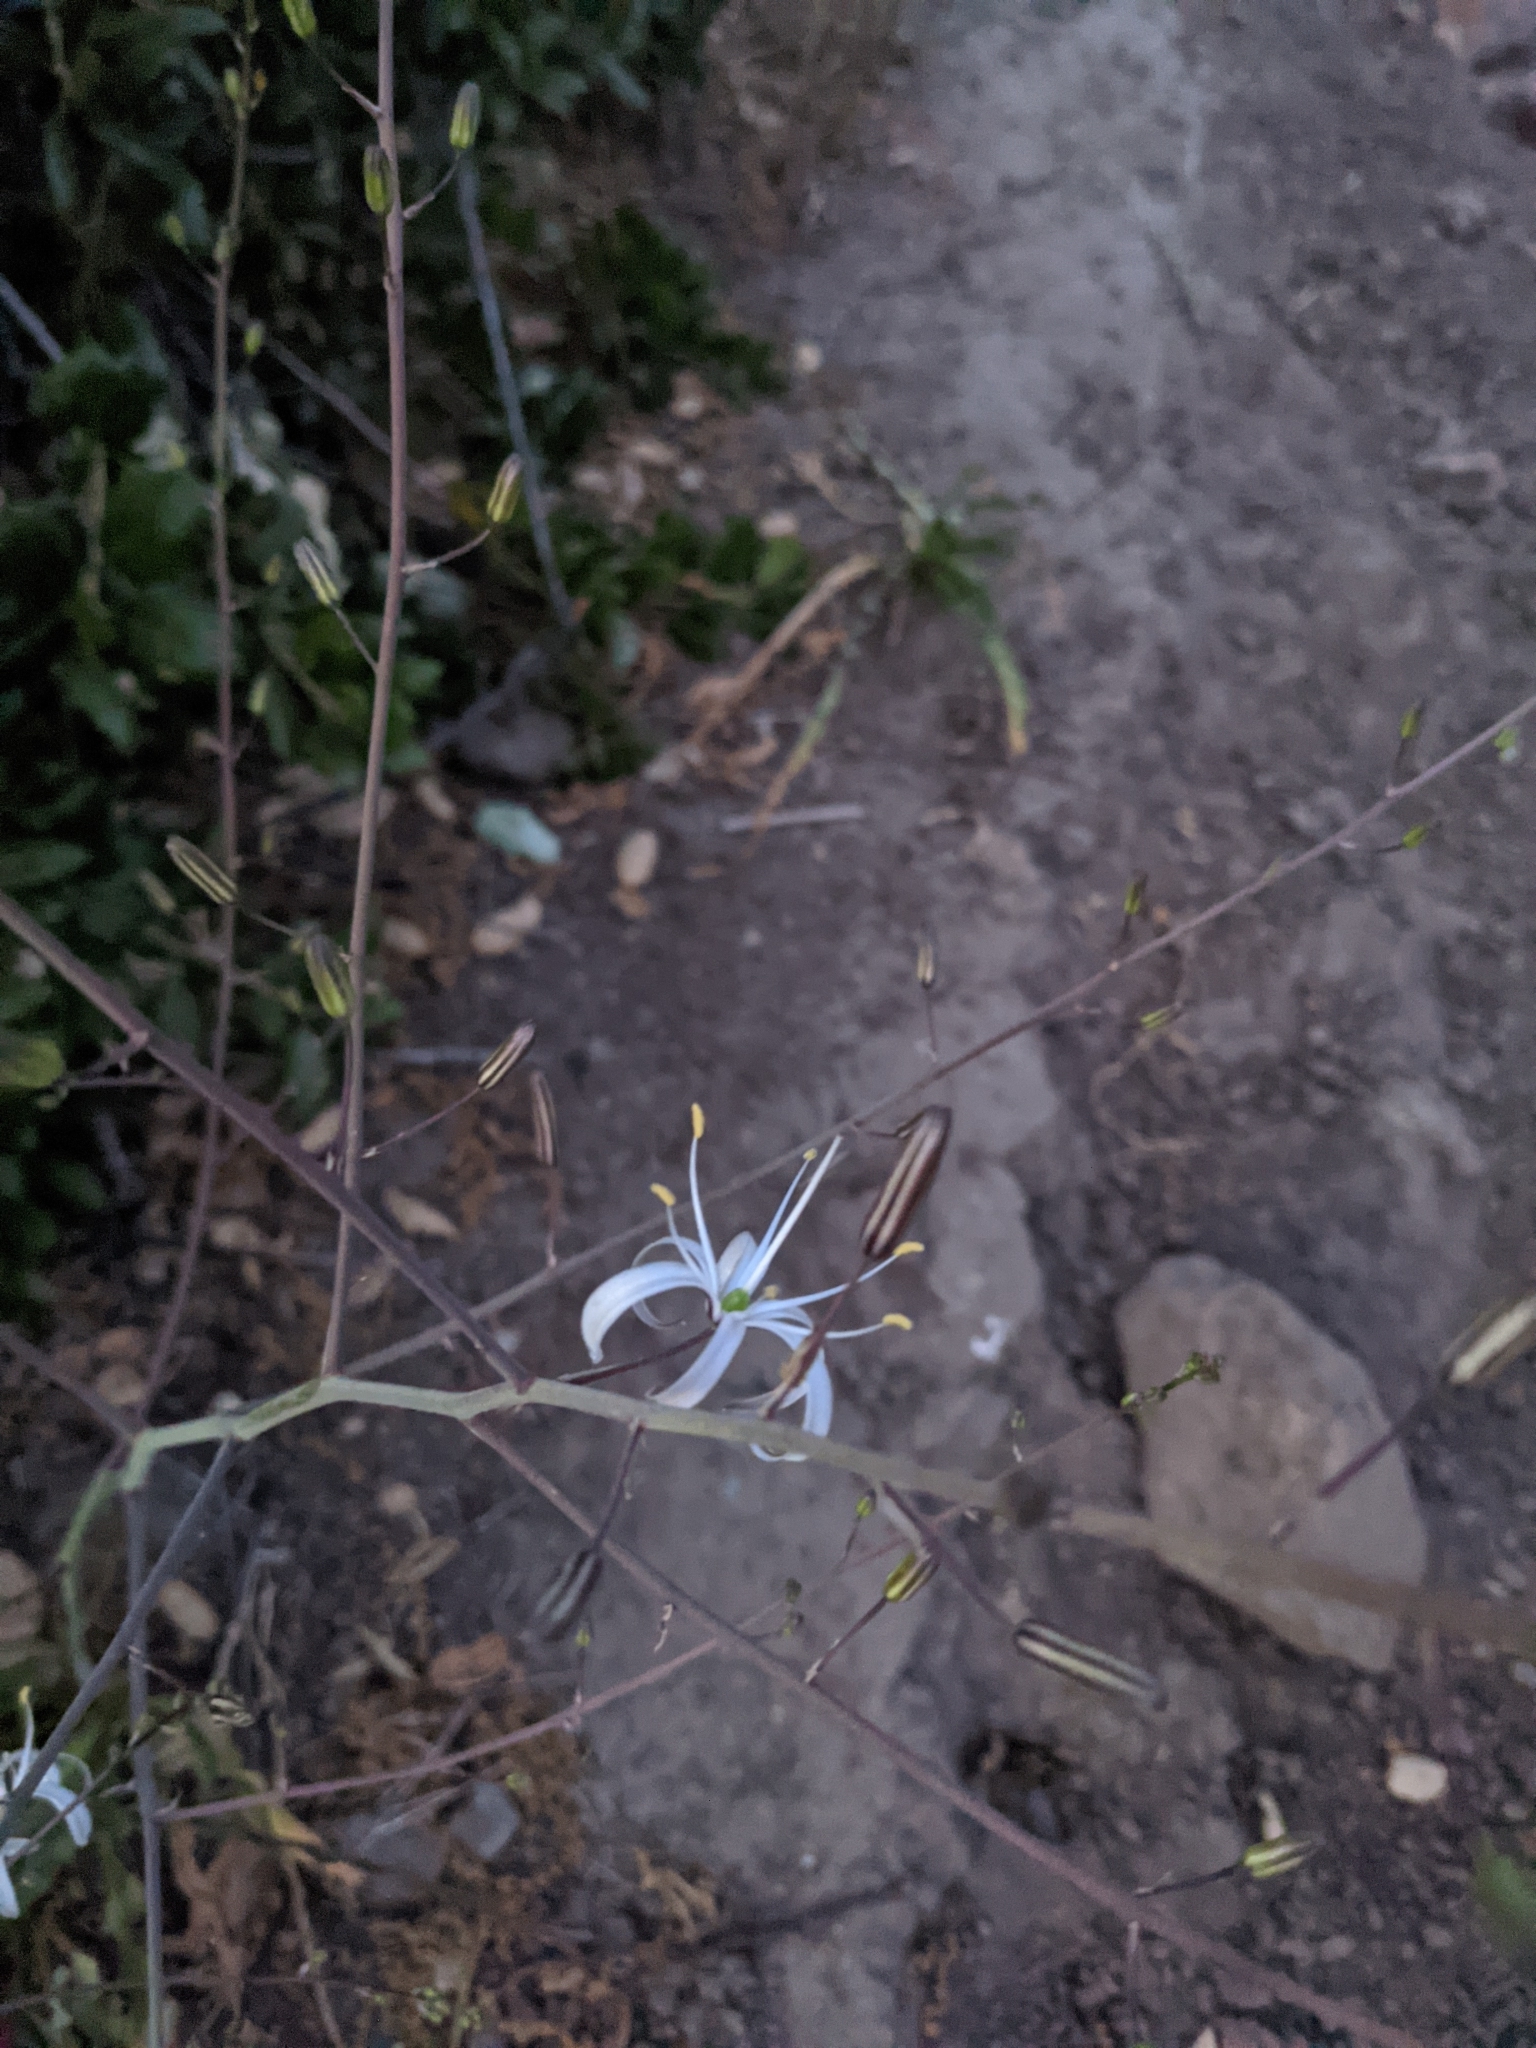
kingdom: Plantae
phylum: Tracheophyta
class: Liliopsida
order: Asparagales
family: Asparagaceae
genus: Chlorogalum
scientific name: Chlorogalum pomeridianum
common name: Amole
